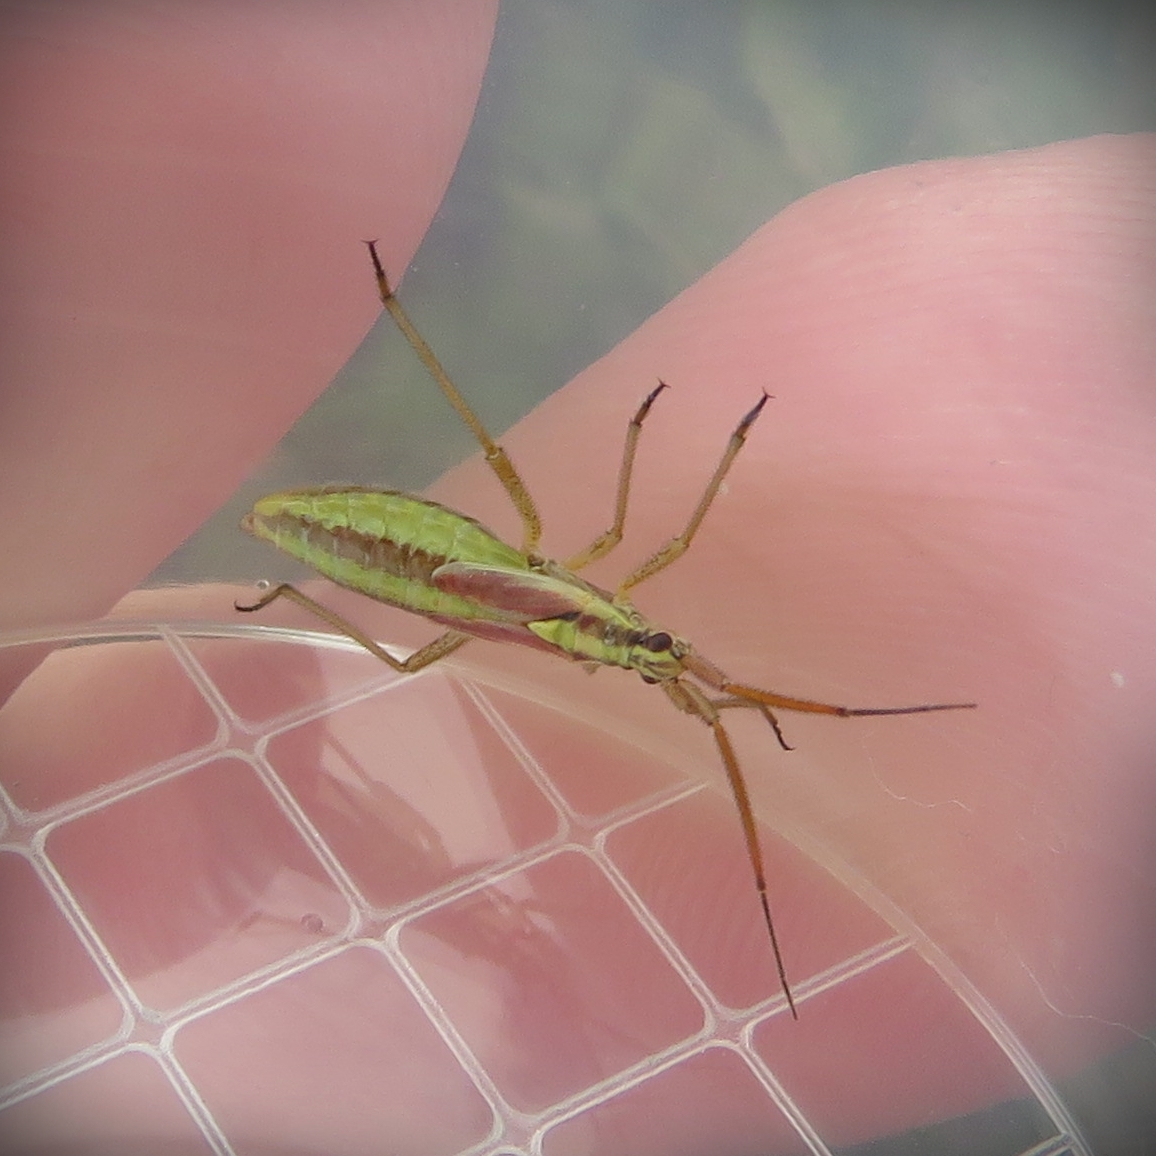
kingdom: Animalia
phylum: Arthropoda
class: Insecta
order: Hemiptera
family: Miridae
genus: Leptopterna
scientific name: Leptopterna ferrugata
